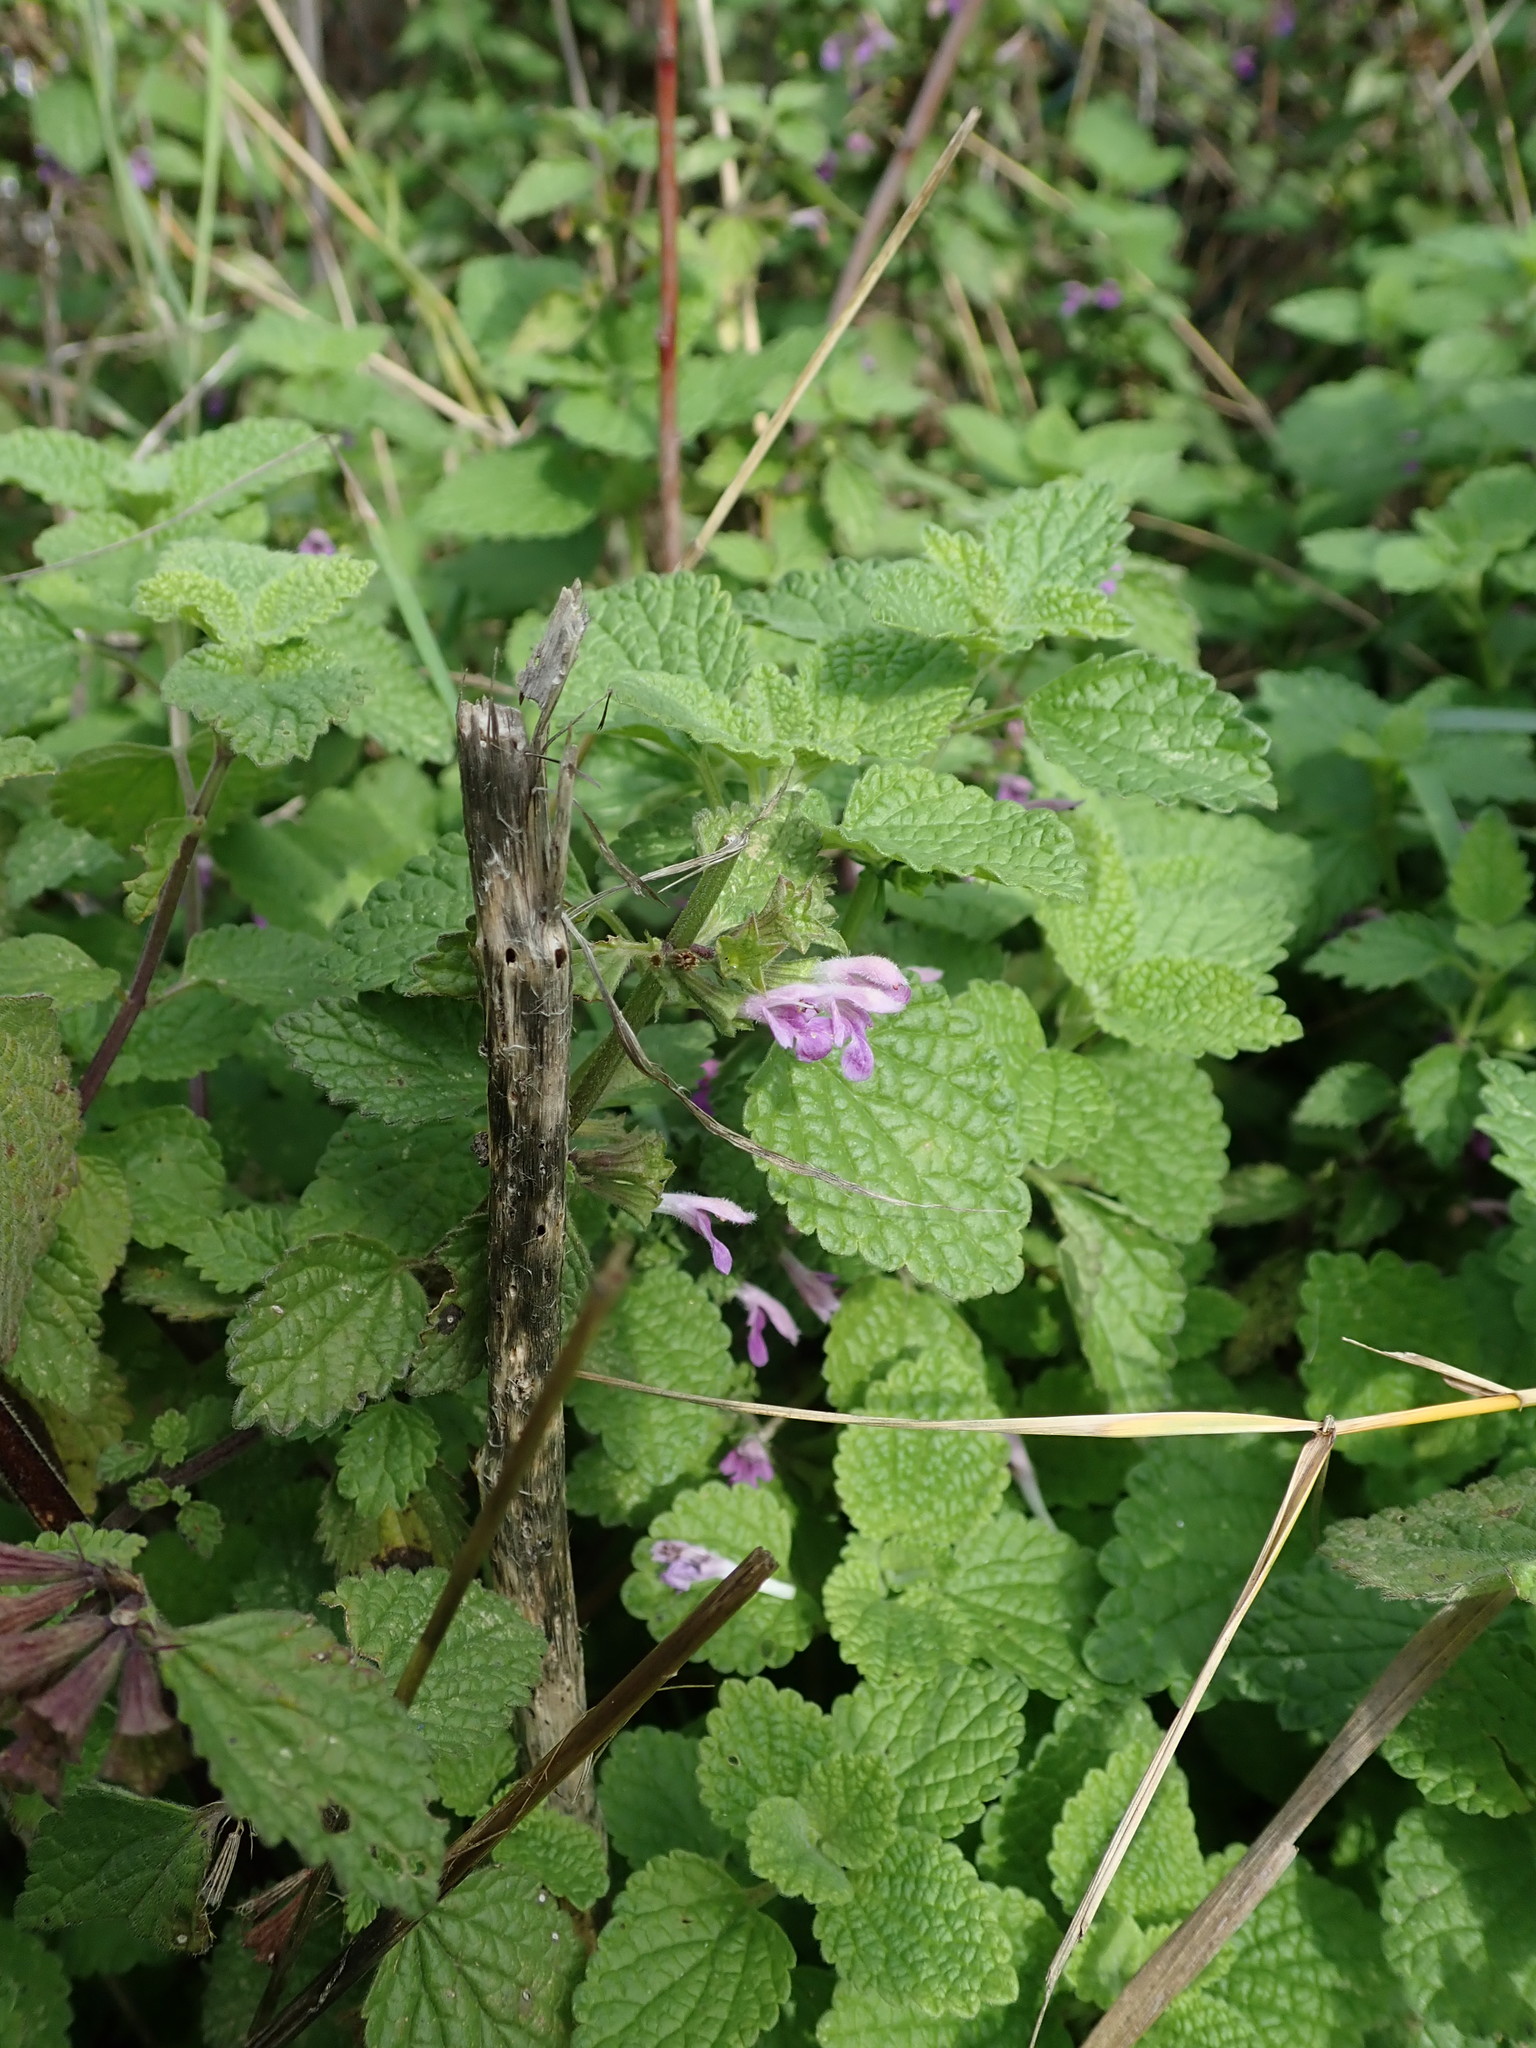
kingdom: Plantae
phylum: Tracheophyta
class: Magnoliopsida
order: Lamiales
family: Lamiaceae
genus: Ballota
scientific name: Ballota nigra
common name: Black horehound
